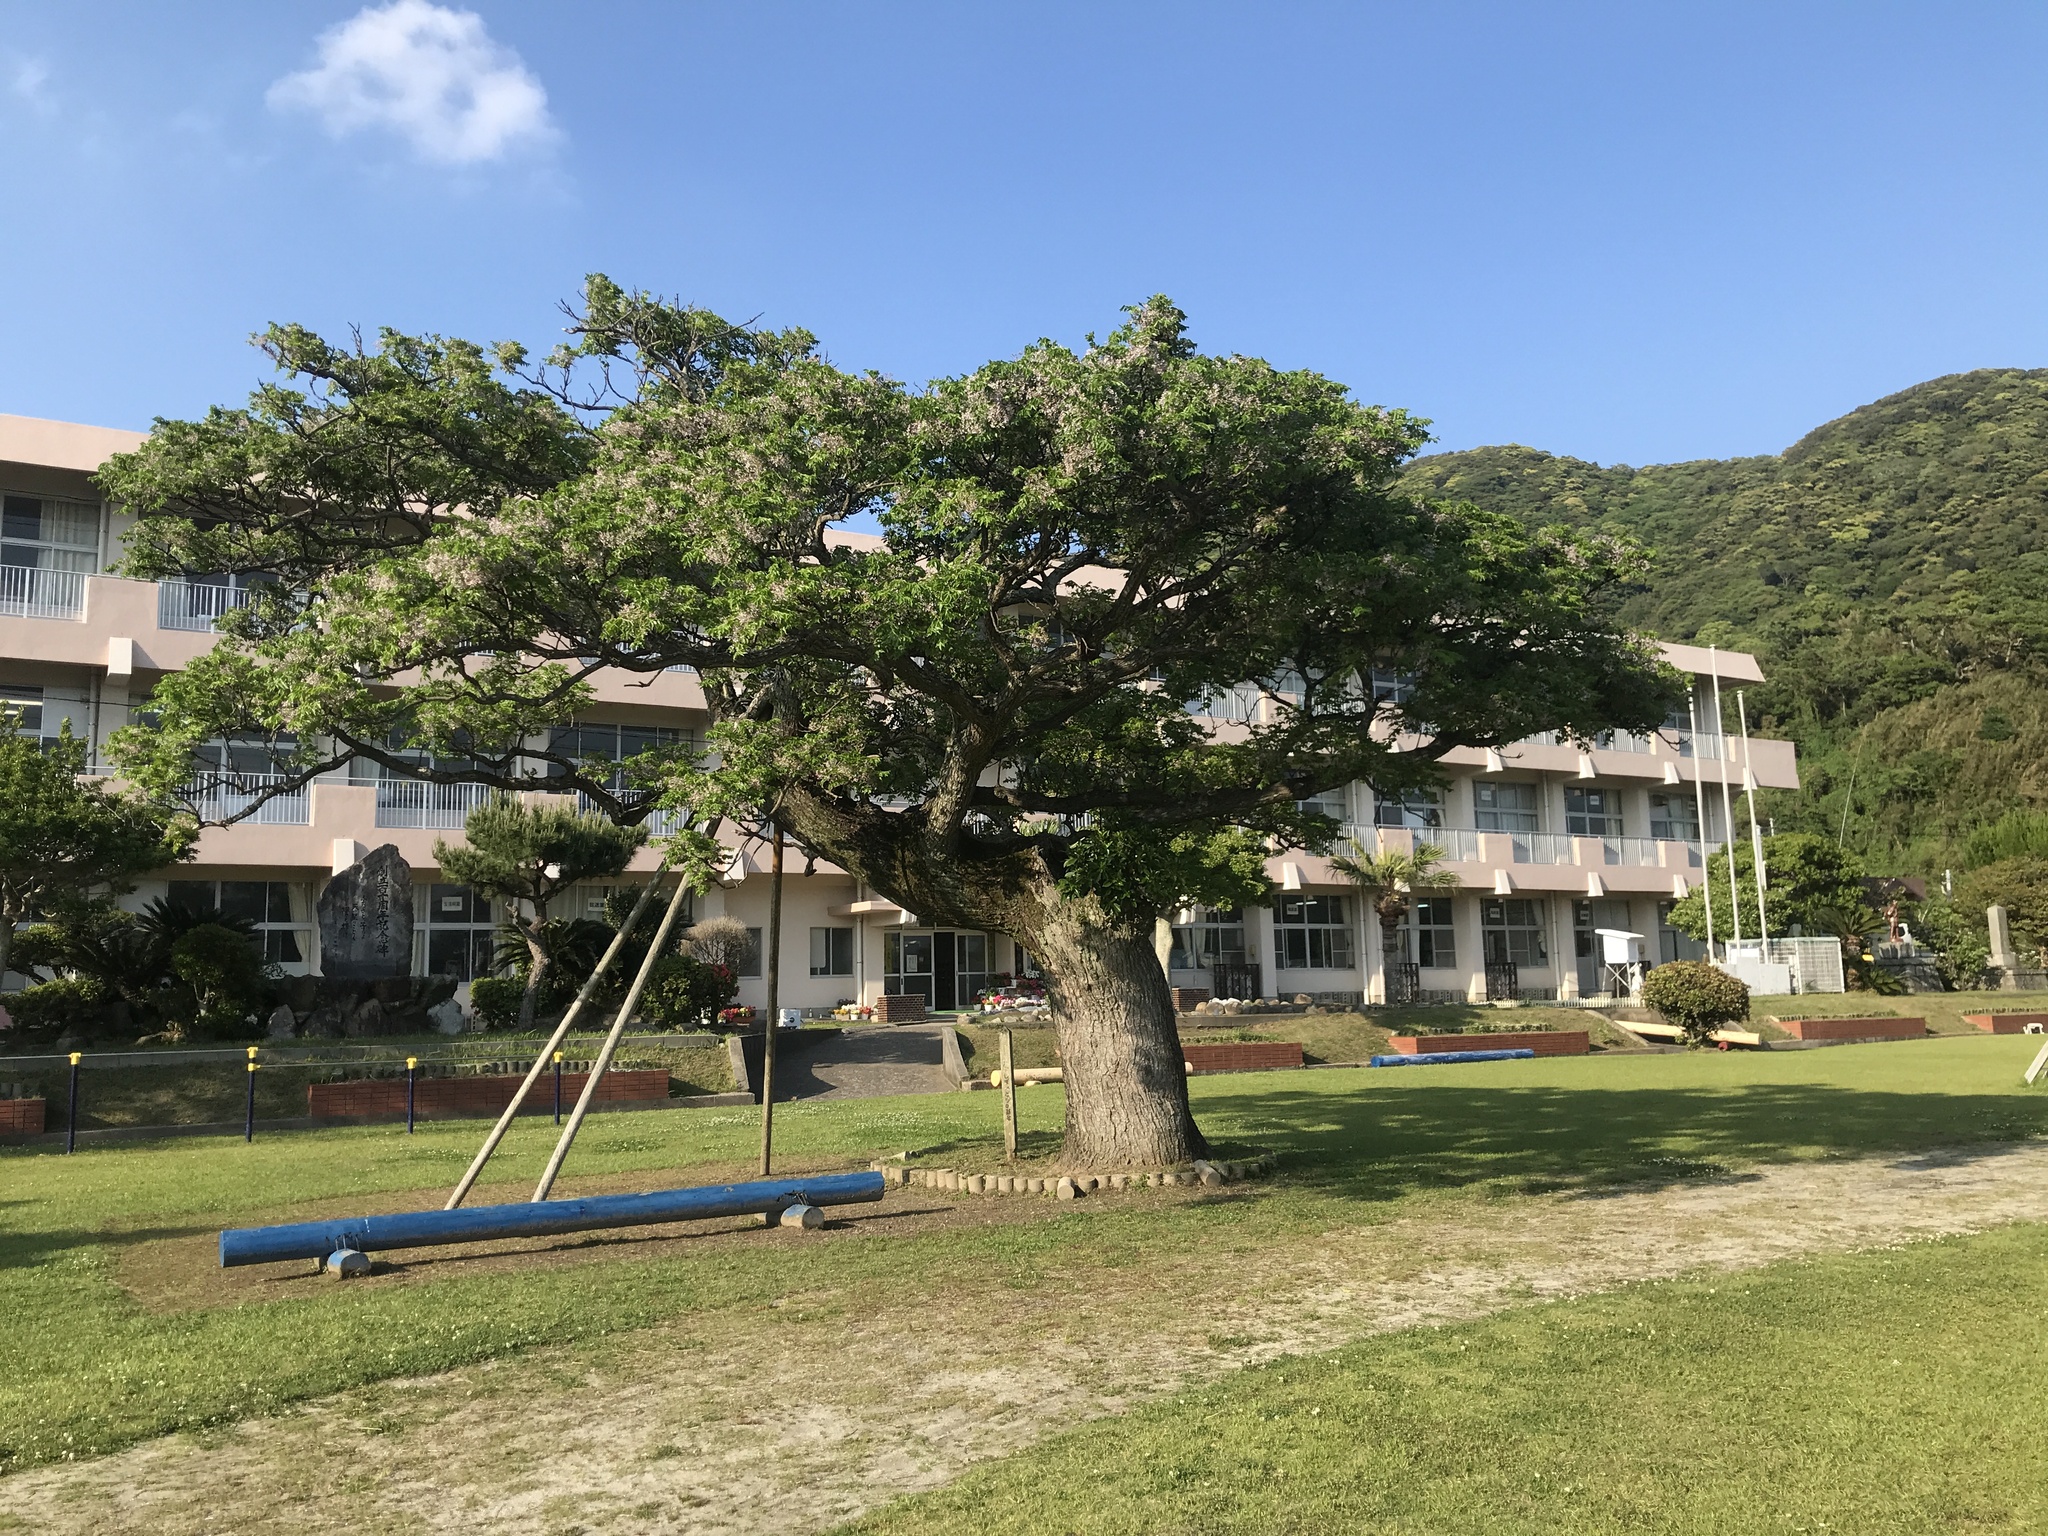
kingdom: Plantae
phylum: Tracheophyta
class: Magnoliopsida
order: Sapindales
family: Meliaceae
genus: Melia
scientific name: Melia azedarach
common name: Chinaberrytree
